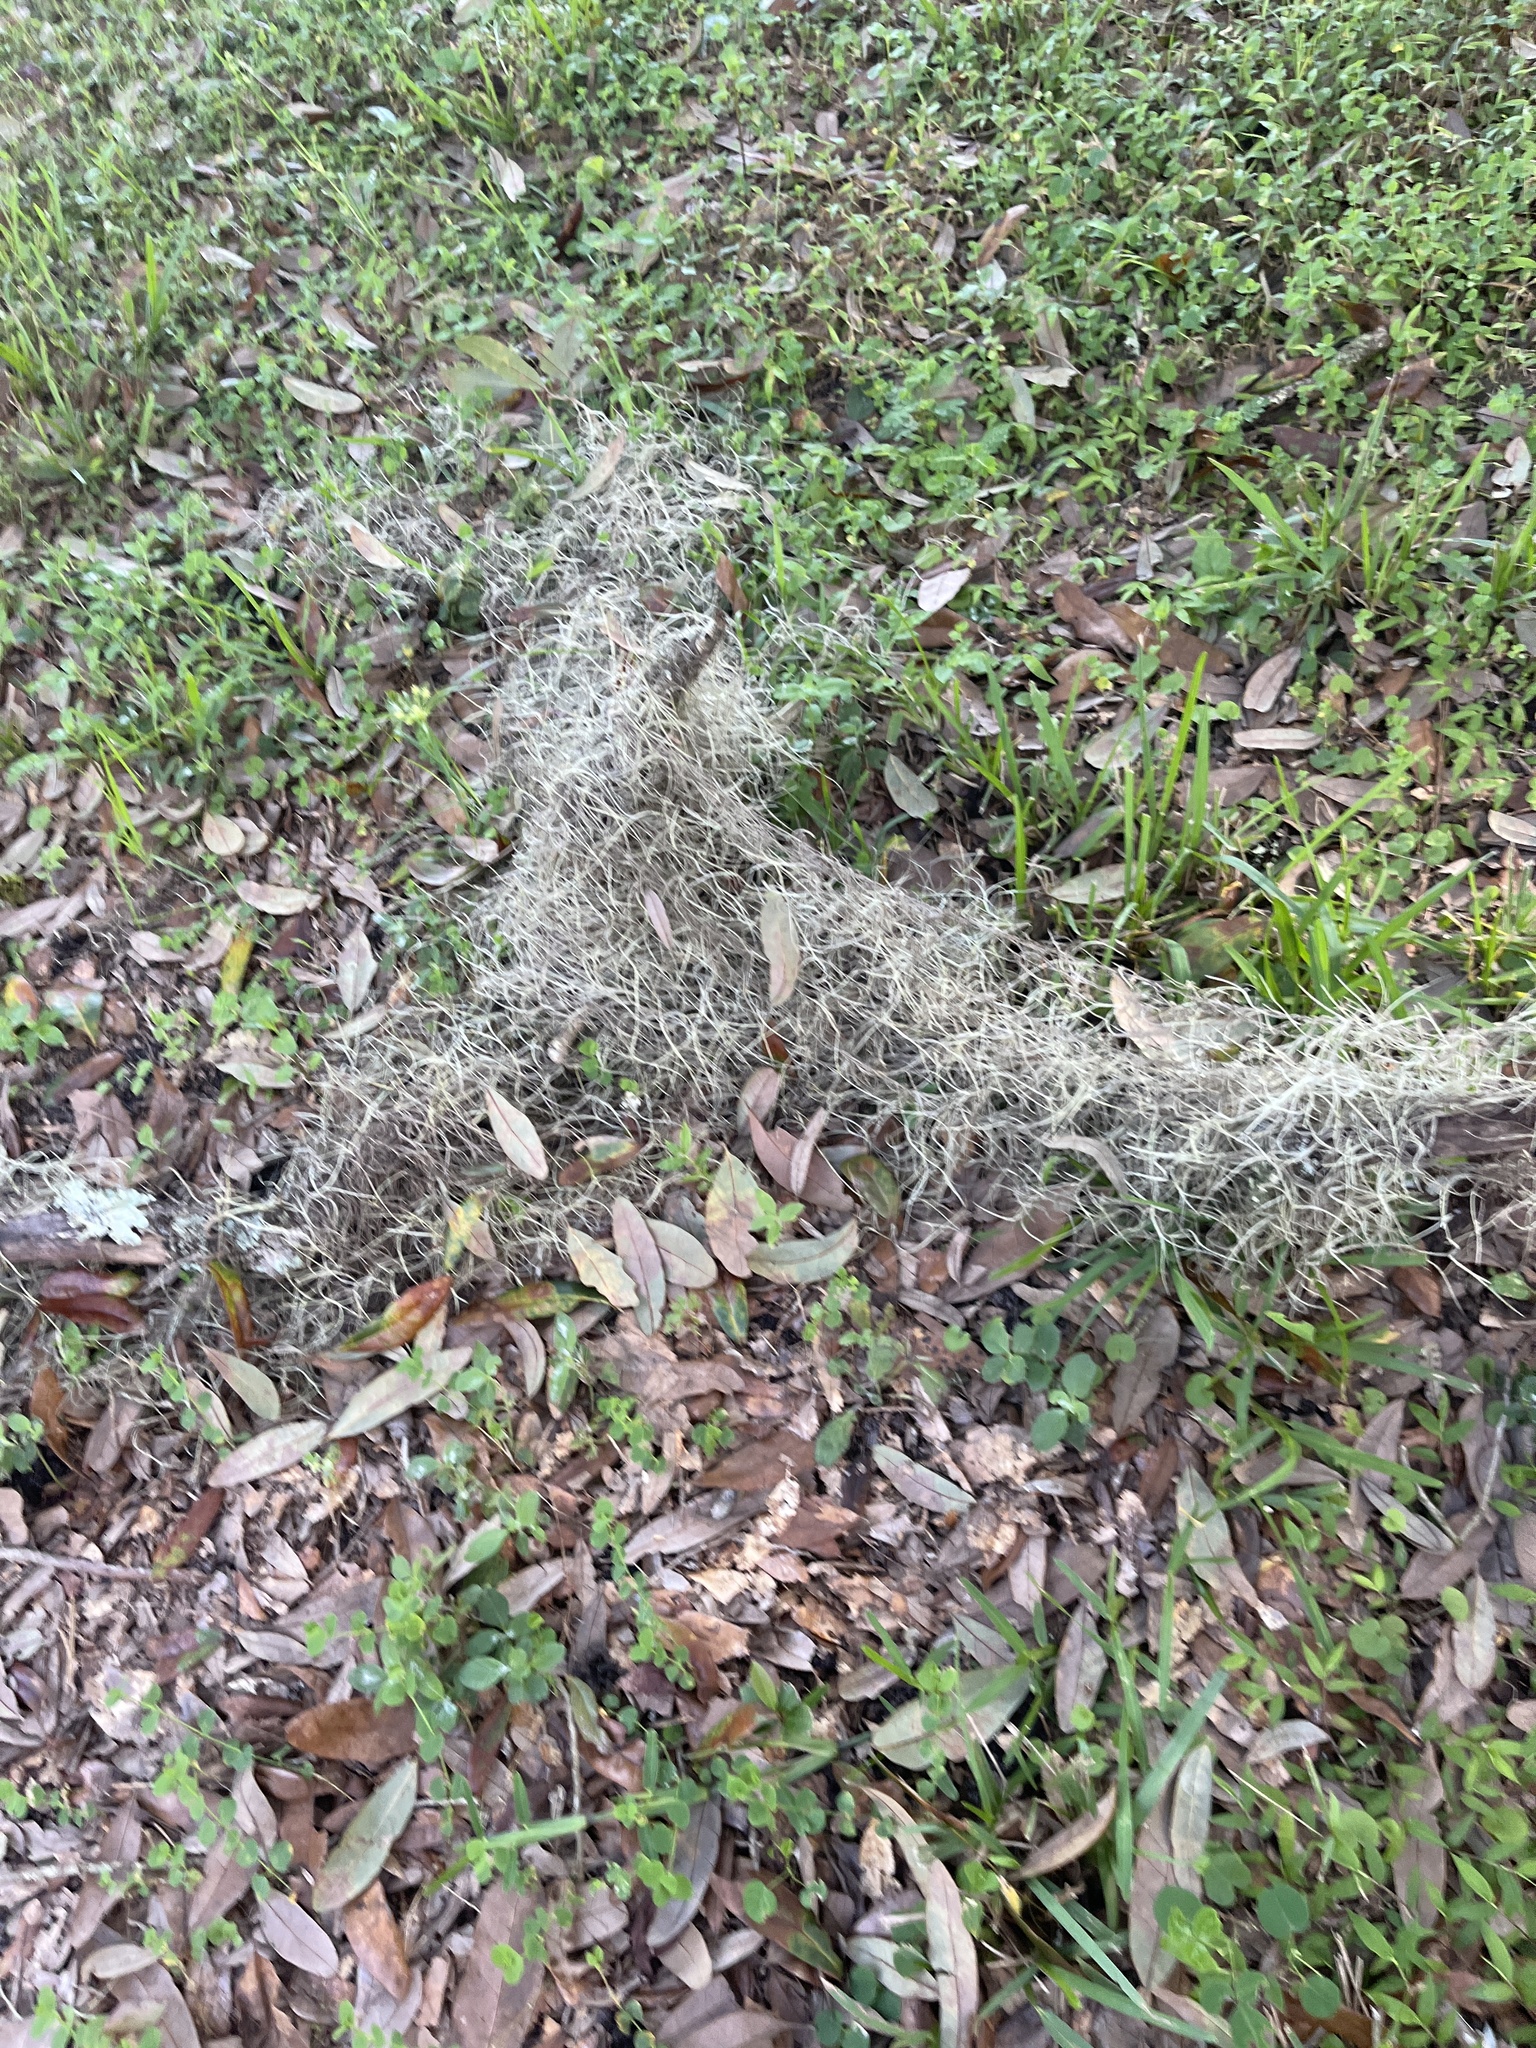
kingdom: Plantae
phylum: Tracheophyta
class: Liliopsida
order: Poales
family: Bromeliaceae
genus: Tillandsia
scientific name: Tillandsia usneoides
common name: Spanish moss
